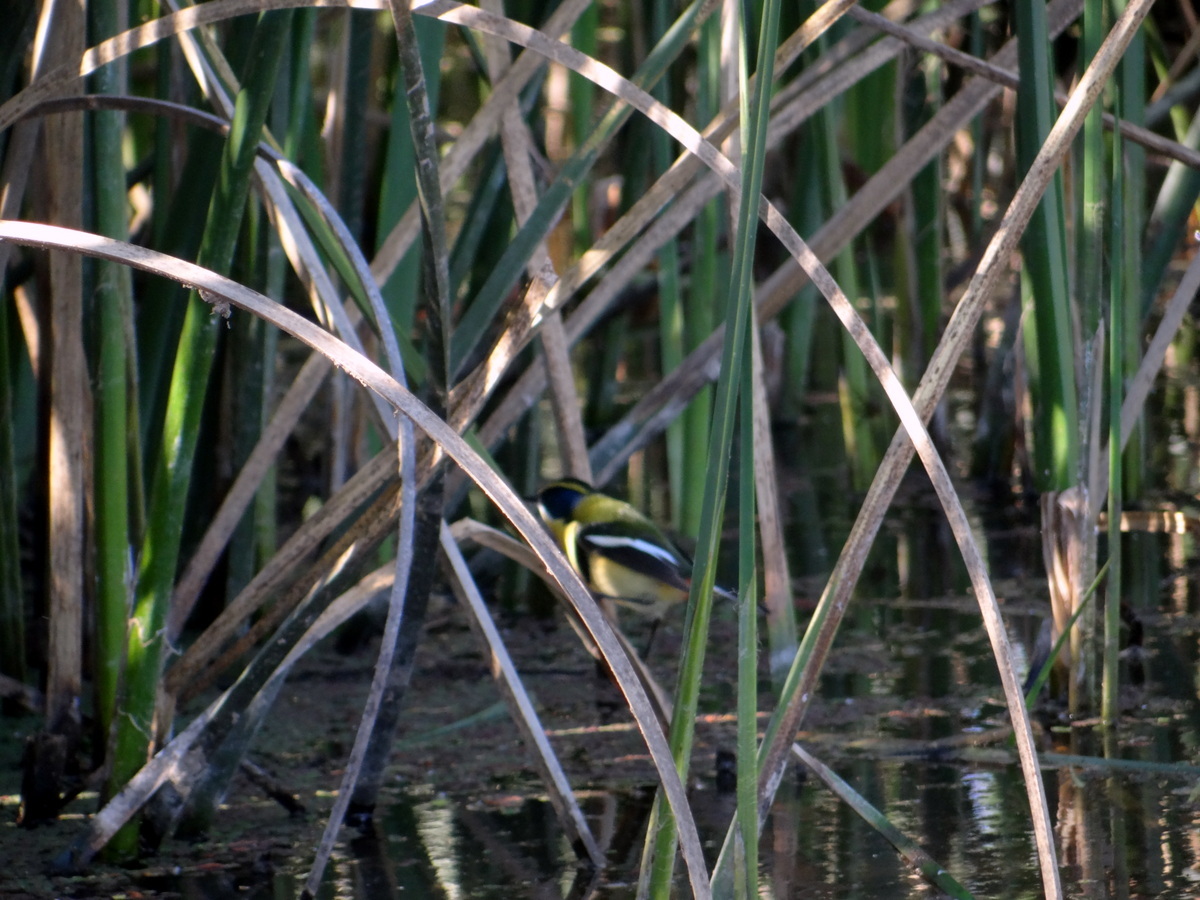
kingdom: Animalia
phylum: Chordata
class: Aves
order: Passeriformes
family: Tyrannidae
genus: Tachuris
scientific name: Tachuris rubrigastra
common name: Many-colored rush tyrant
